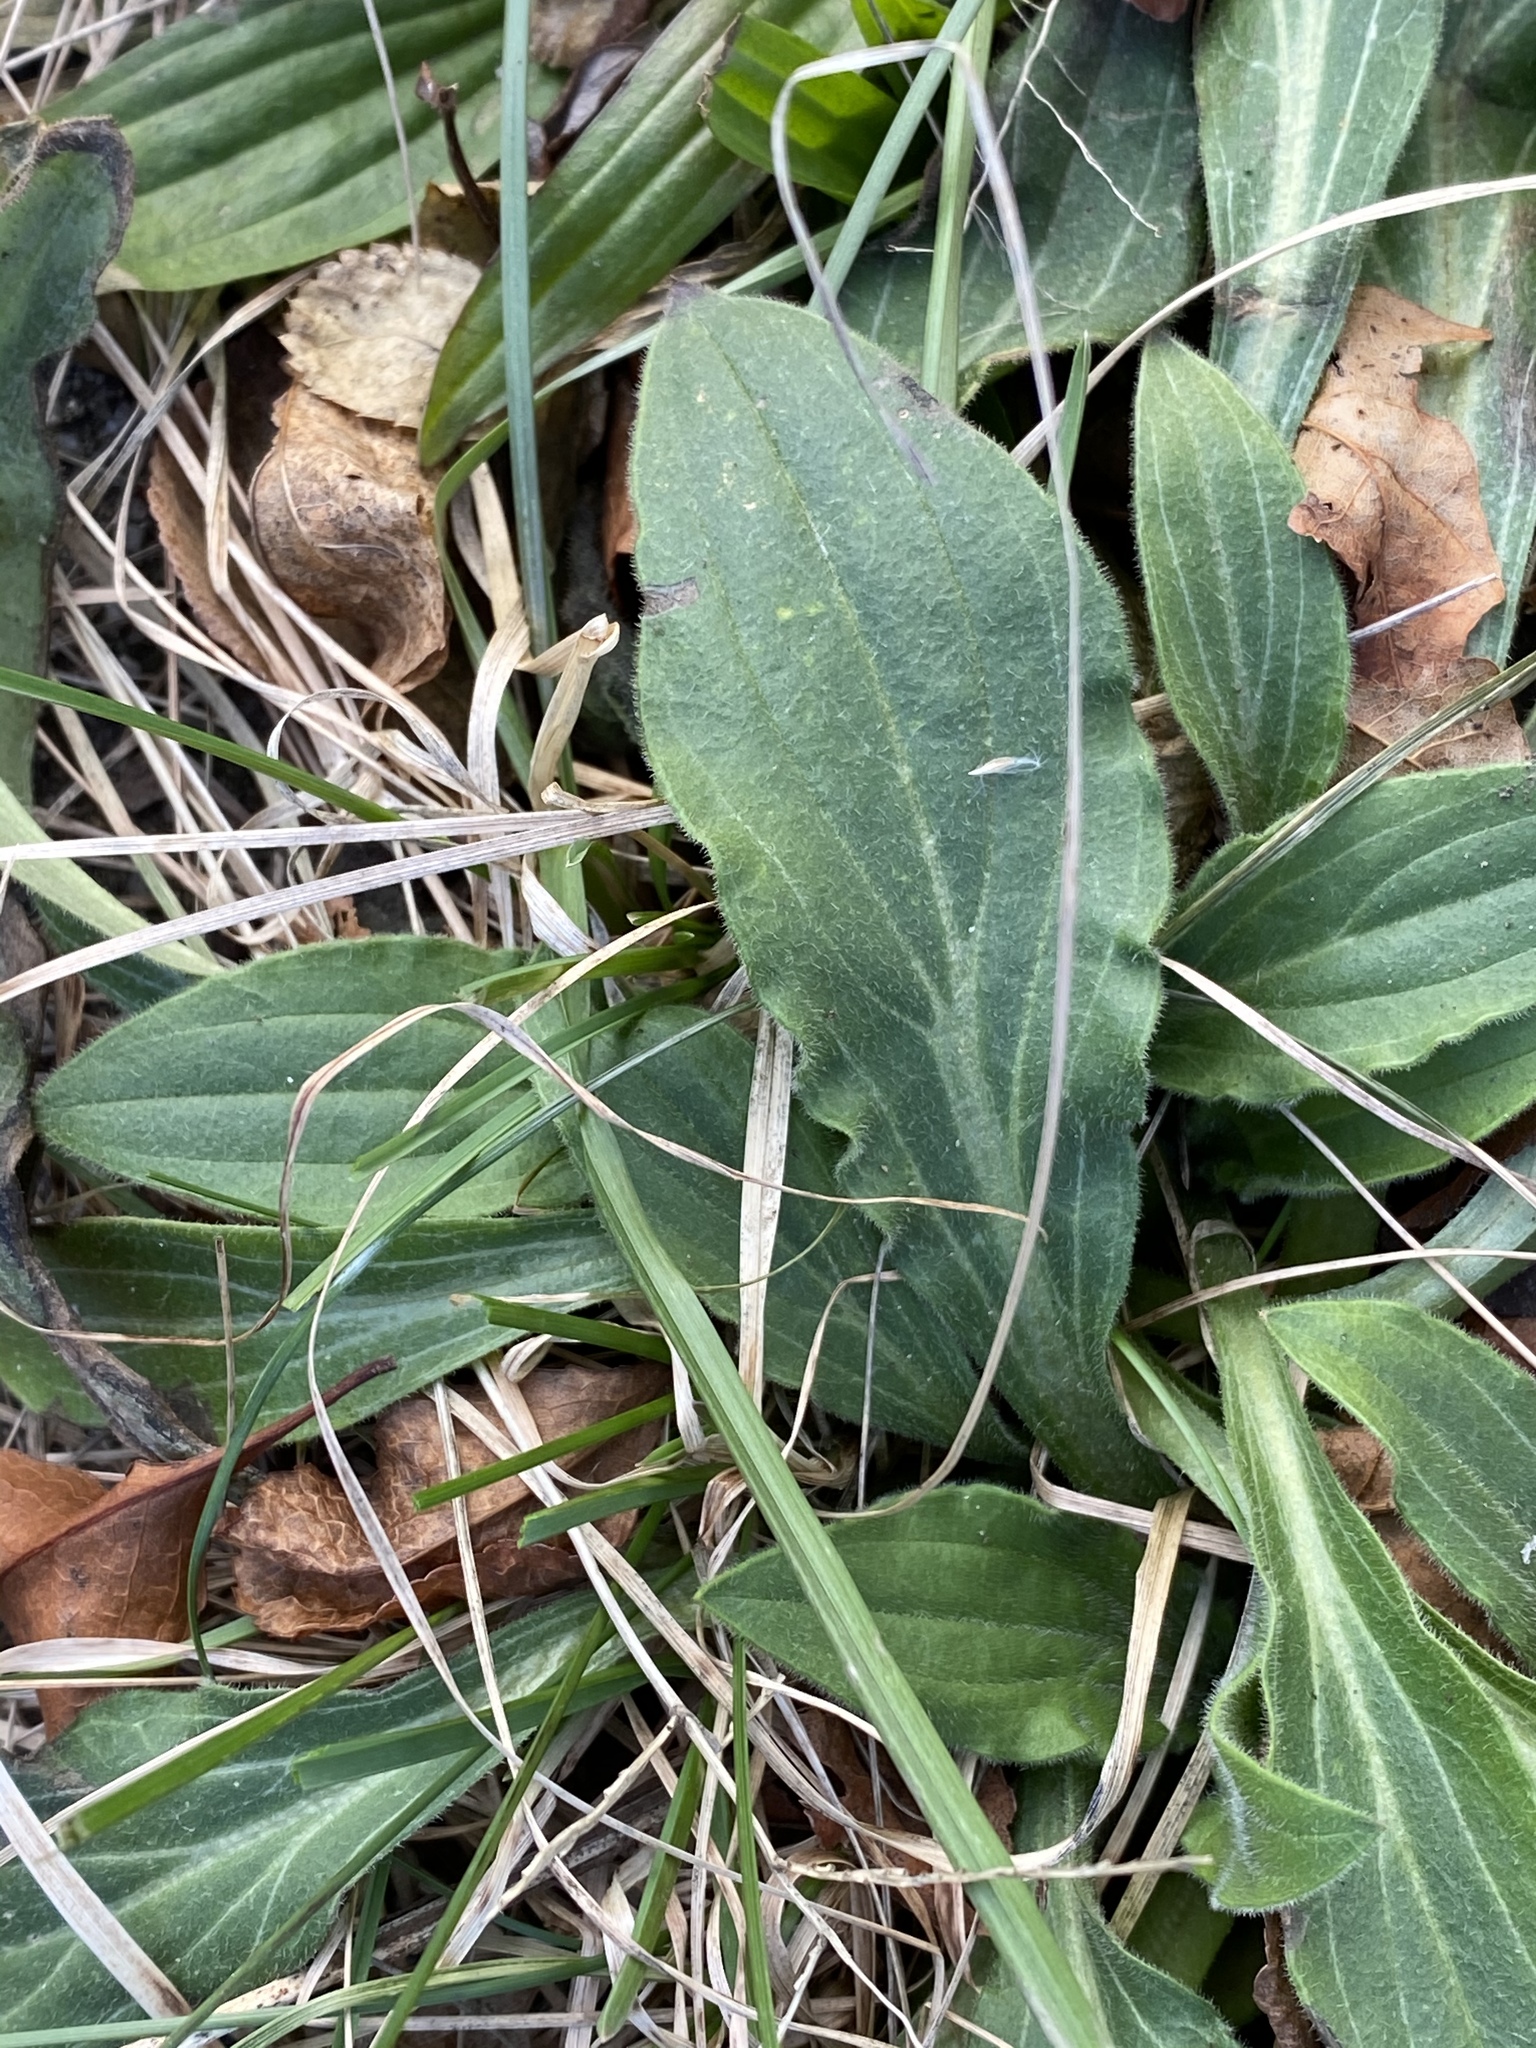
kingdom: Plantae
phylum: Tracheophyta
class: Magnoliopsida
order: Caryophyllales
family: Caryophyllaceae
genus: Silene
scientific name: Silene latifolia
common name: White campion
